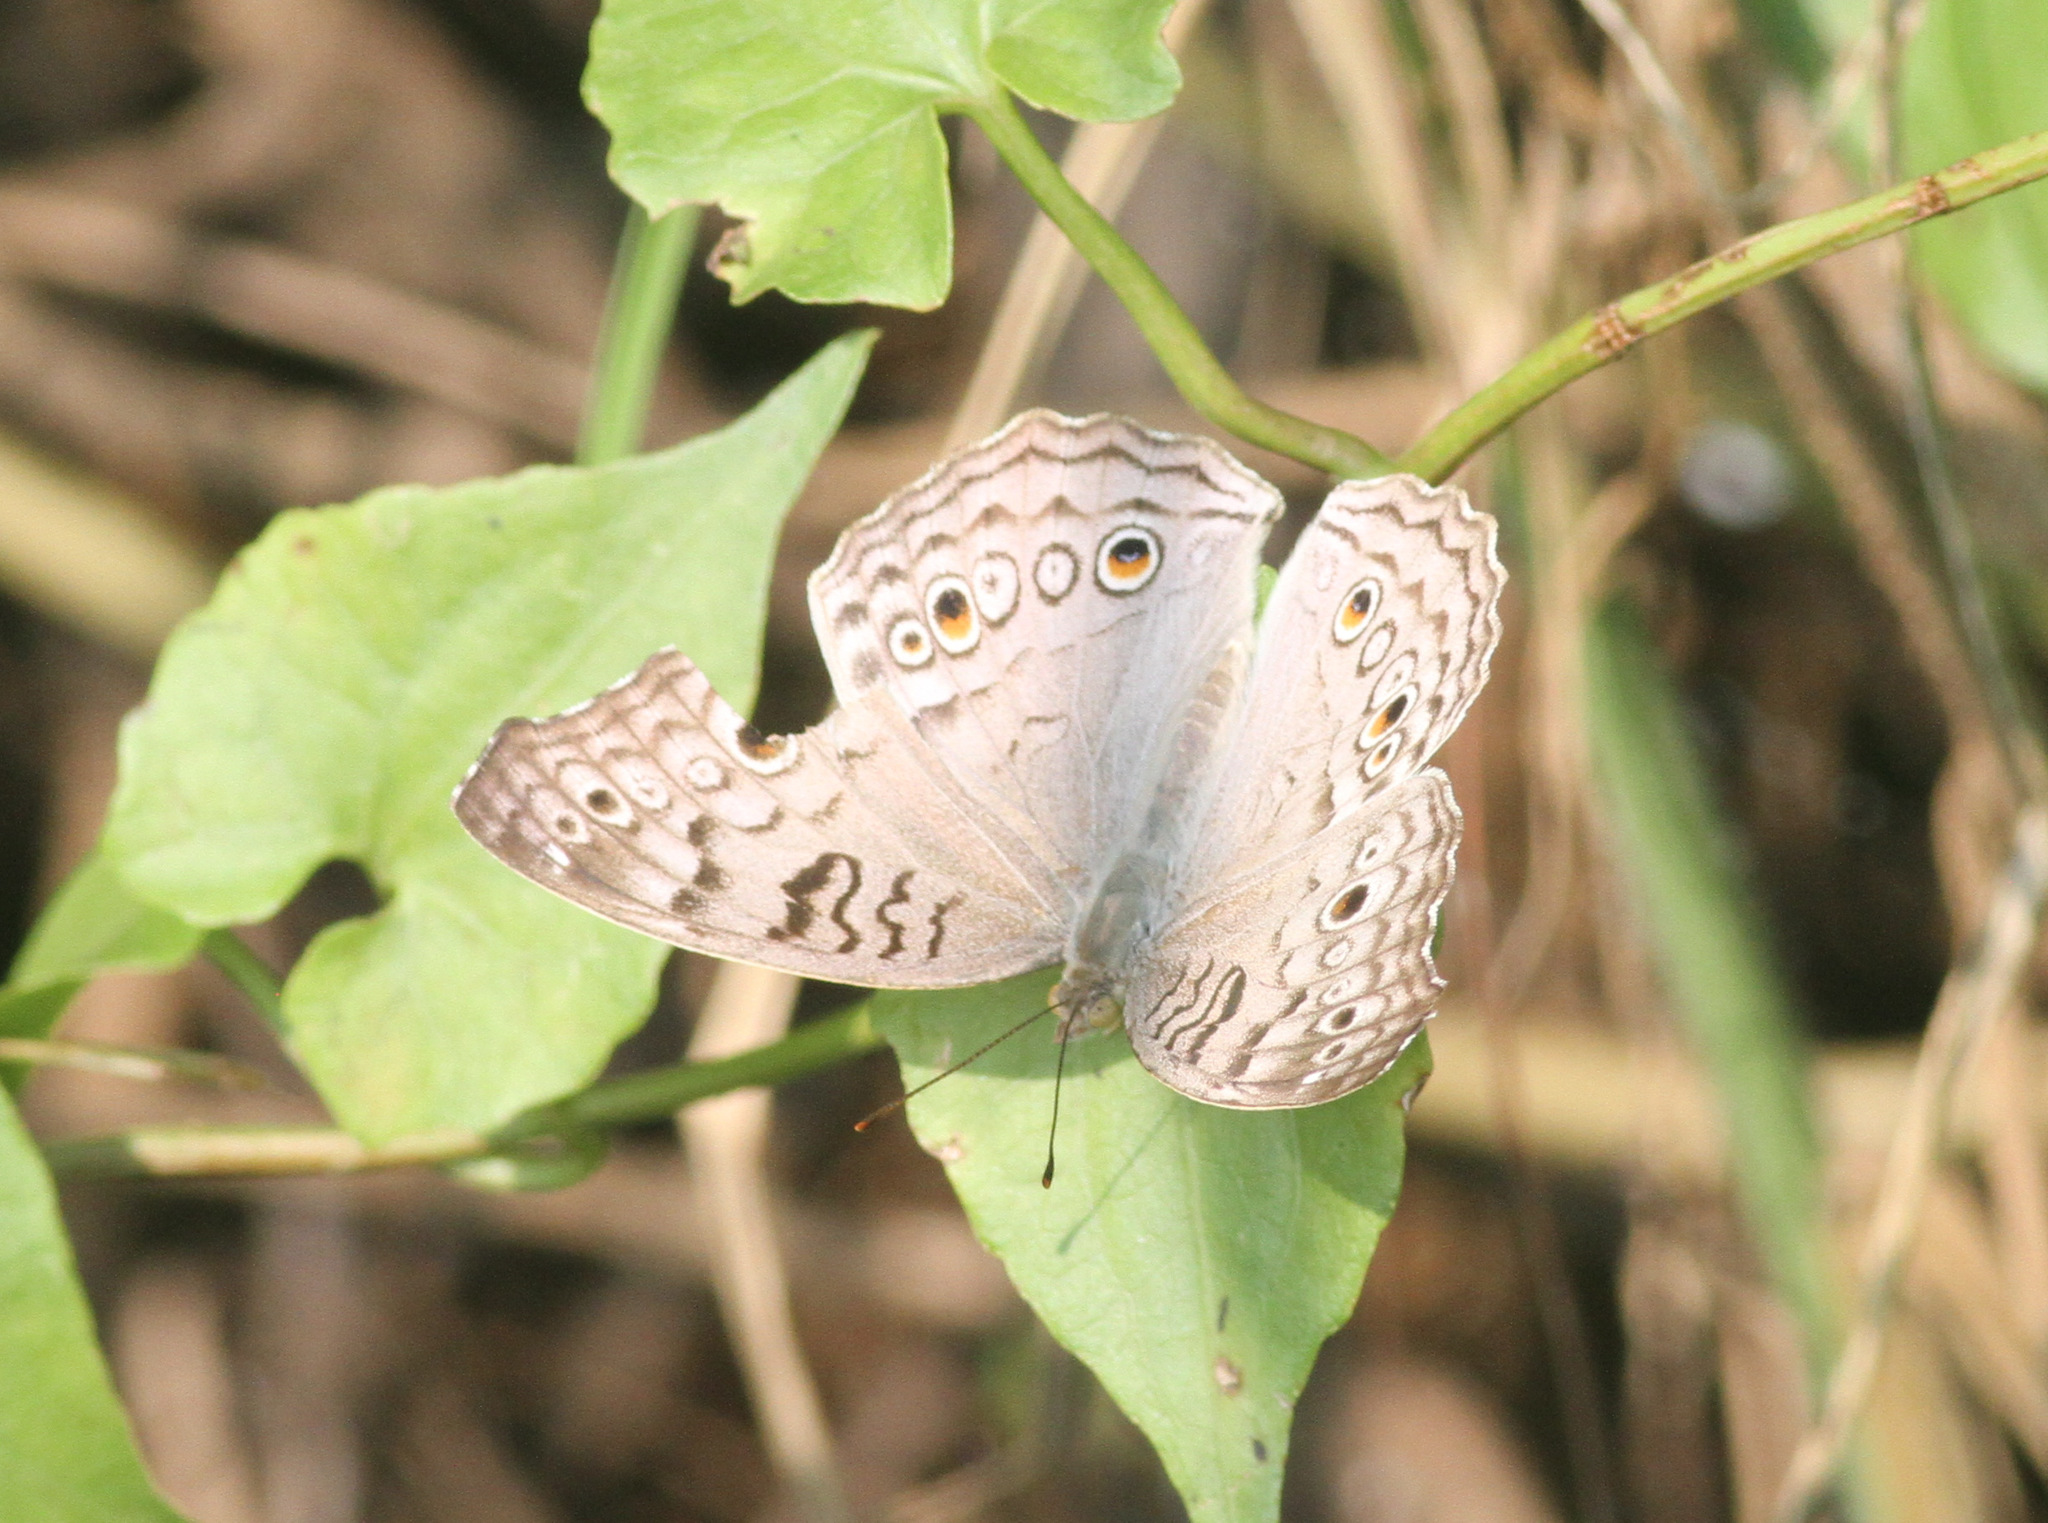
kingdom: Animalia
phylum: Arthropoda
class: Insecta
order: Lepidoptera
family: Nymphalidae
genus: Junonia
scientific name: Junonia atlites
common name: Grey pansy
